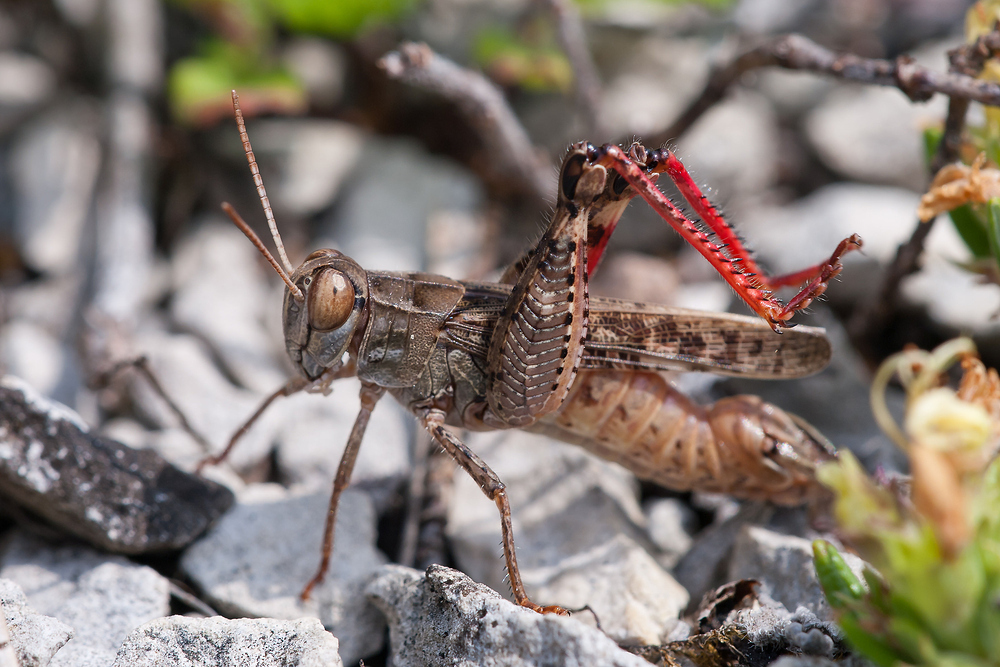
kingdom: Animalia
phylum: Arthropoda
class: Insecta
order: Orthoptera
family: Acrididae
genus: Calliptamus
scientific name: Calliptamus italicus
